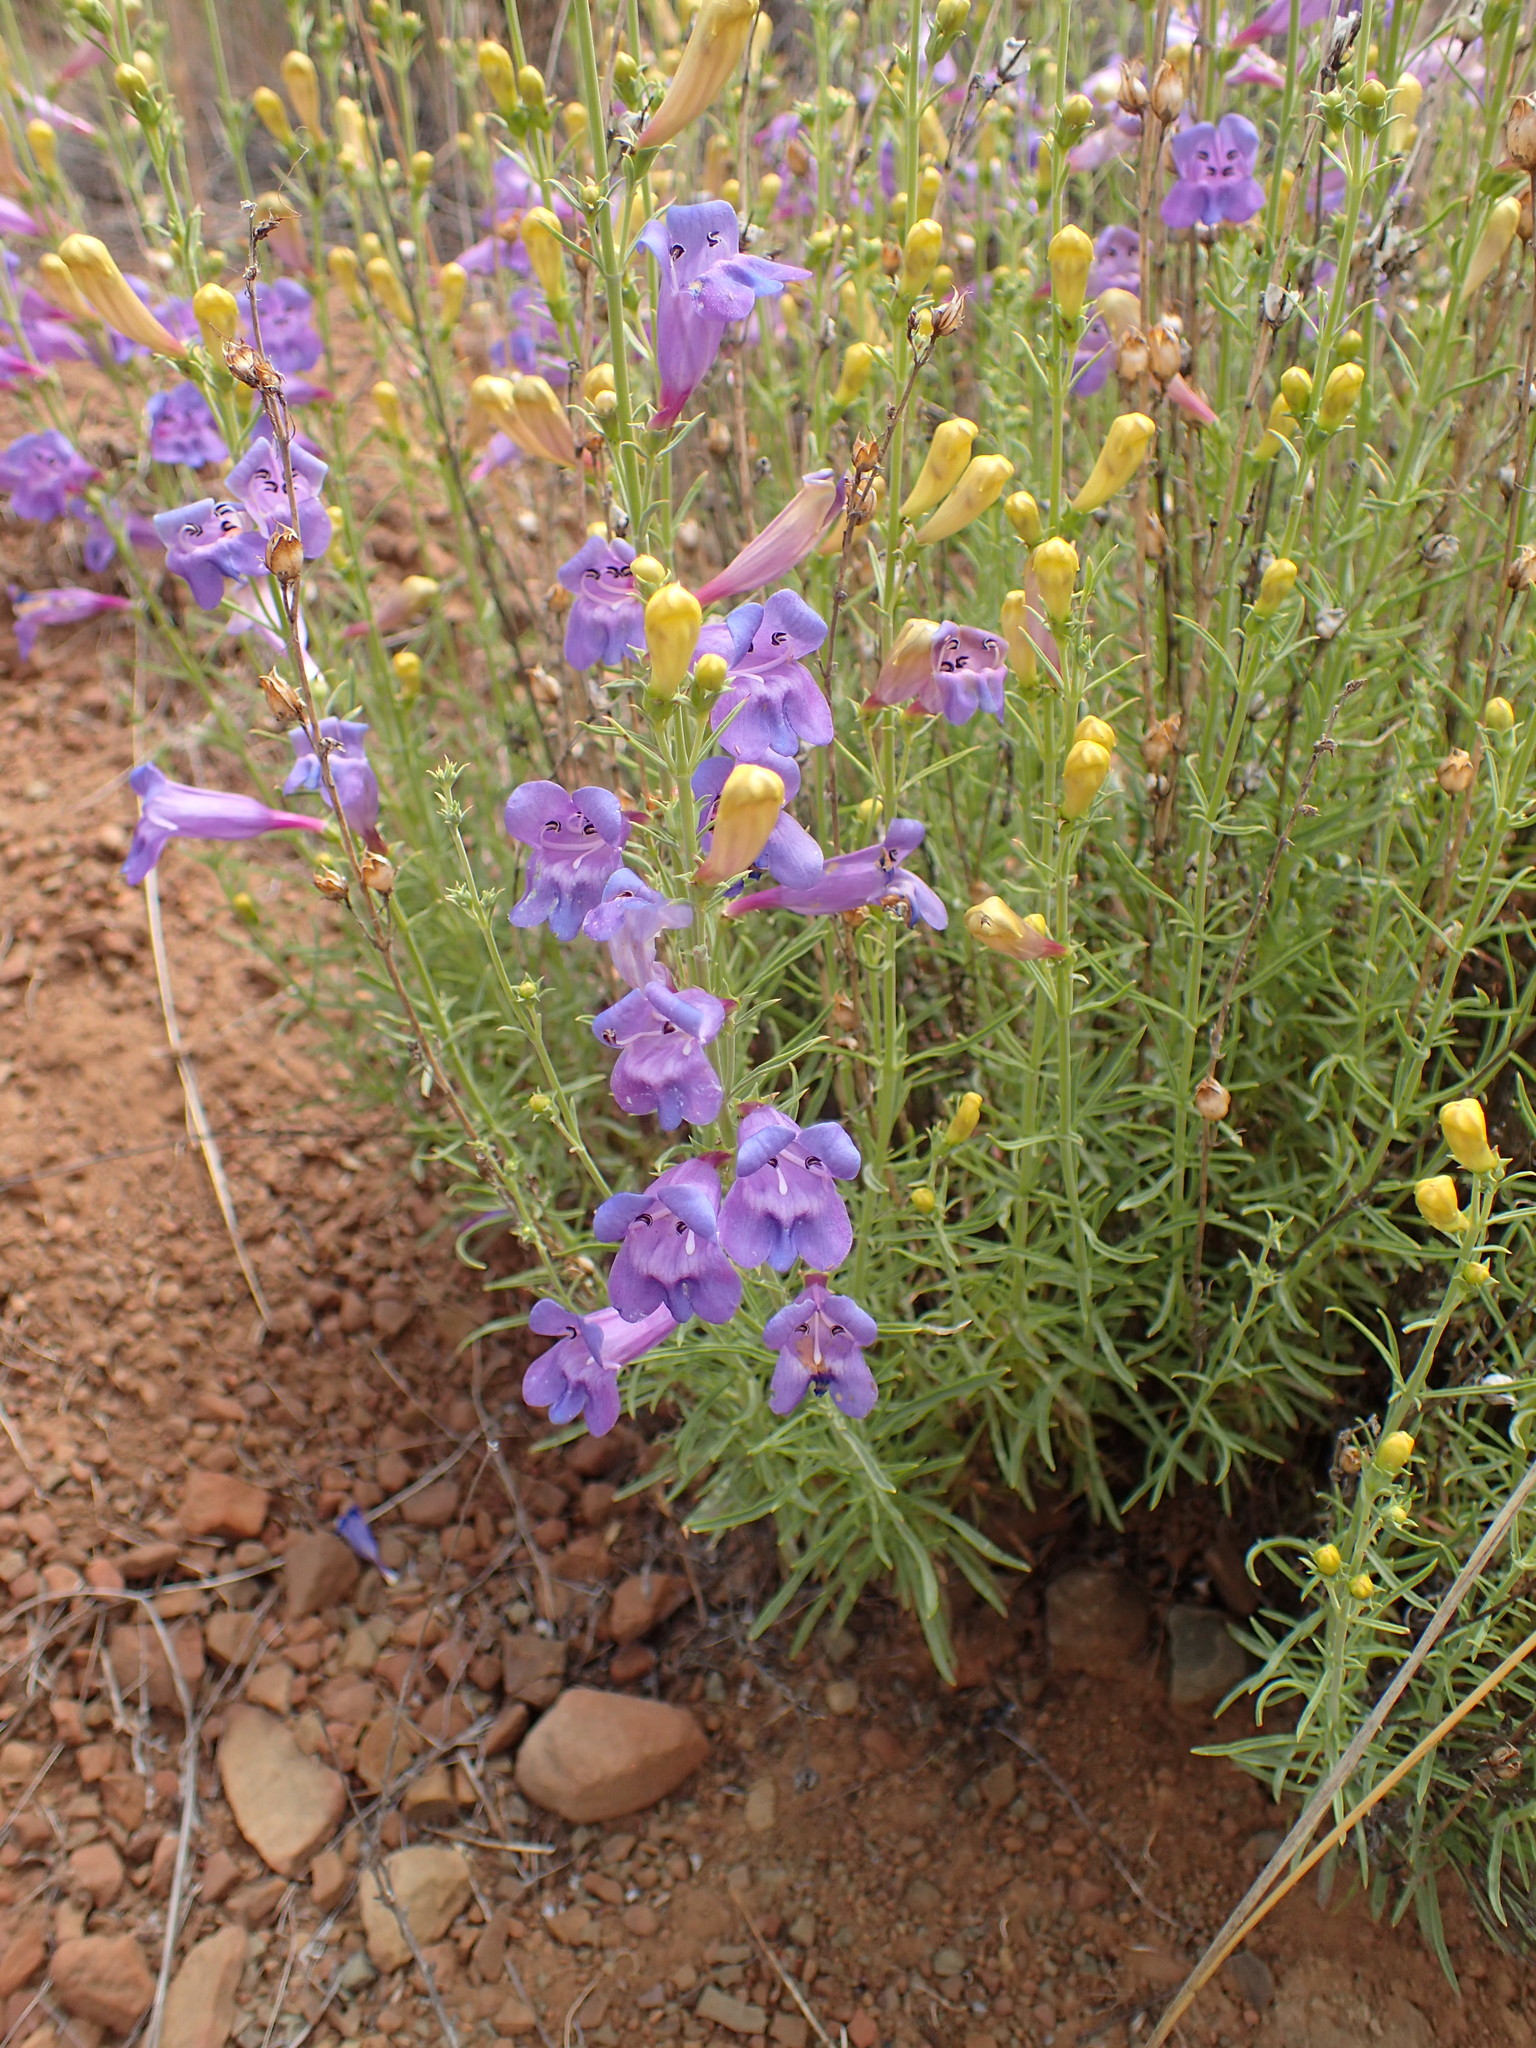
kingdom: Plantae
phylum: Tracheophyta
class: Magnoliopsida
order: Lamiales
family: Plantaginaceae
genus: Penstemon
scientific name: Penstemon heterophyllus
